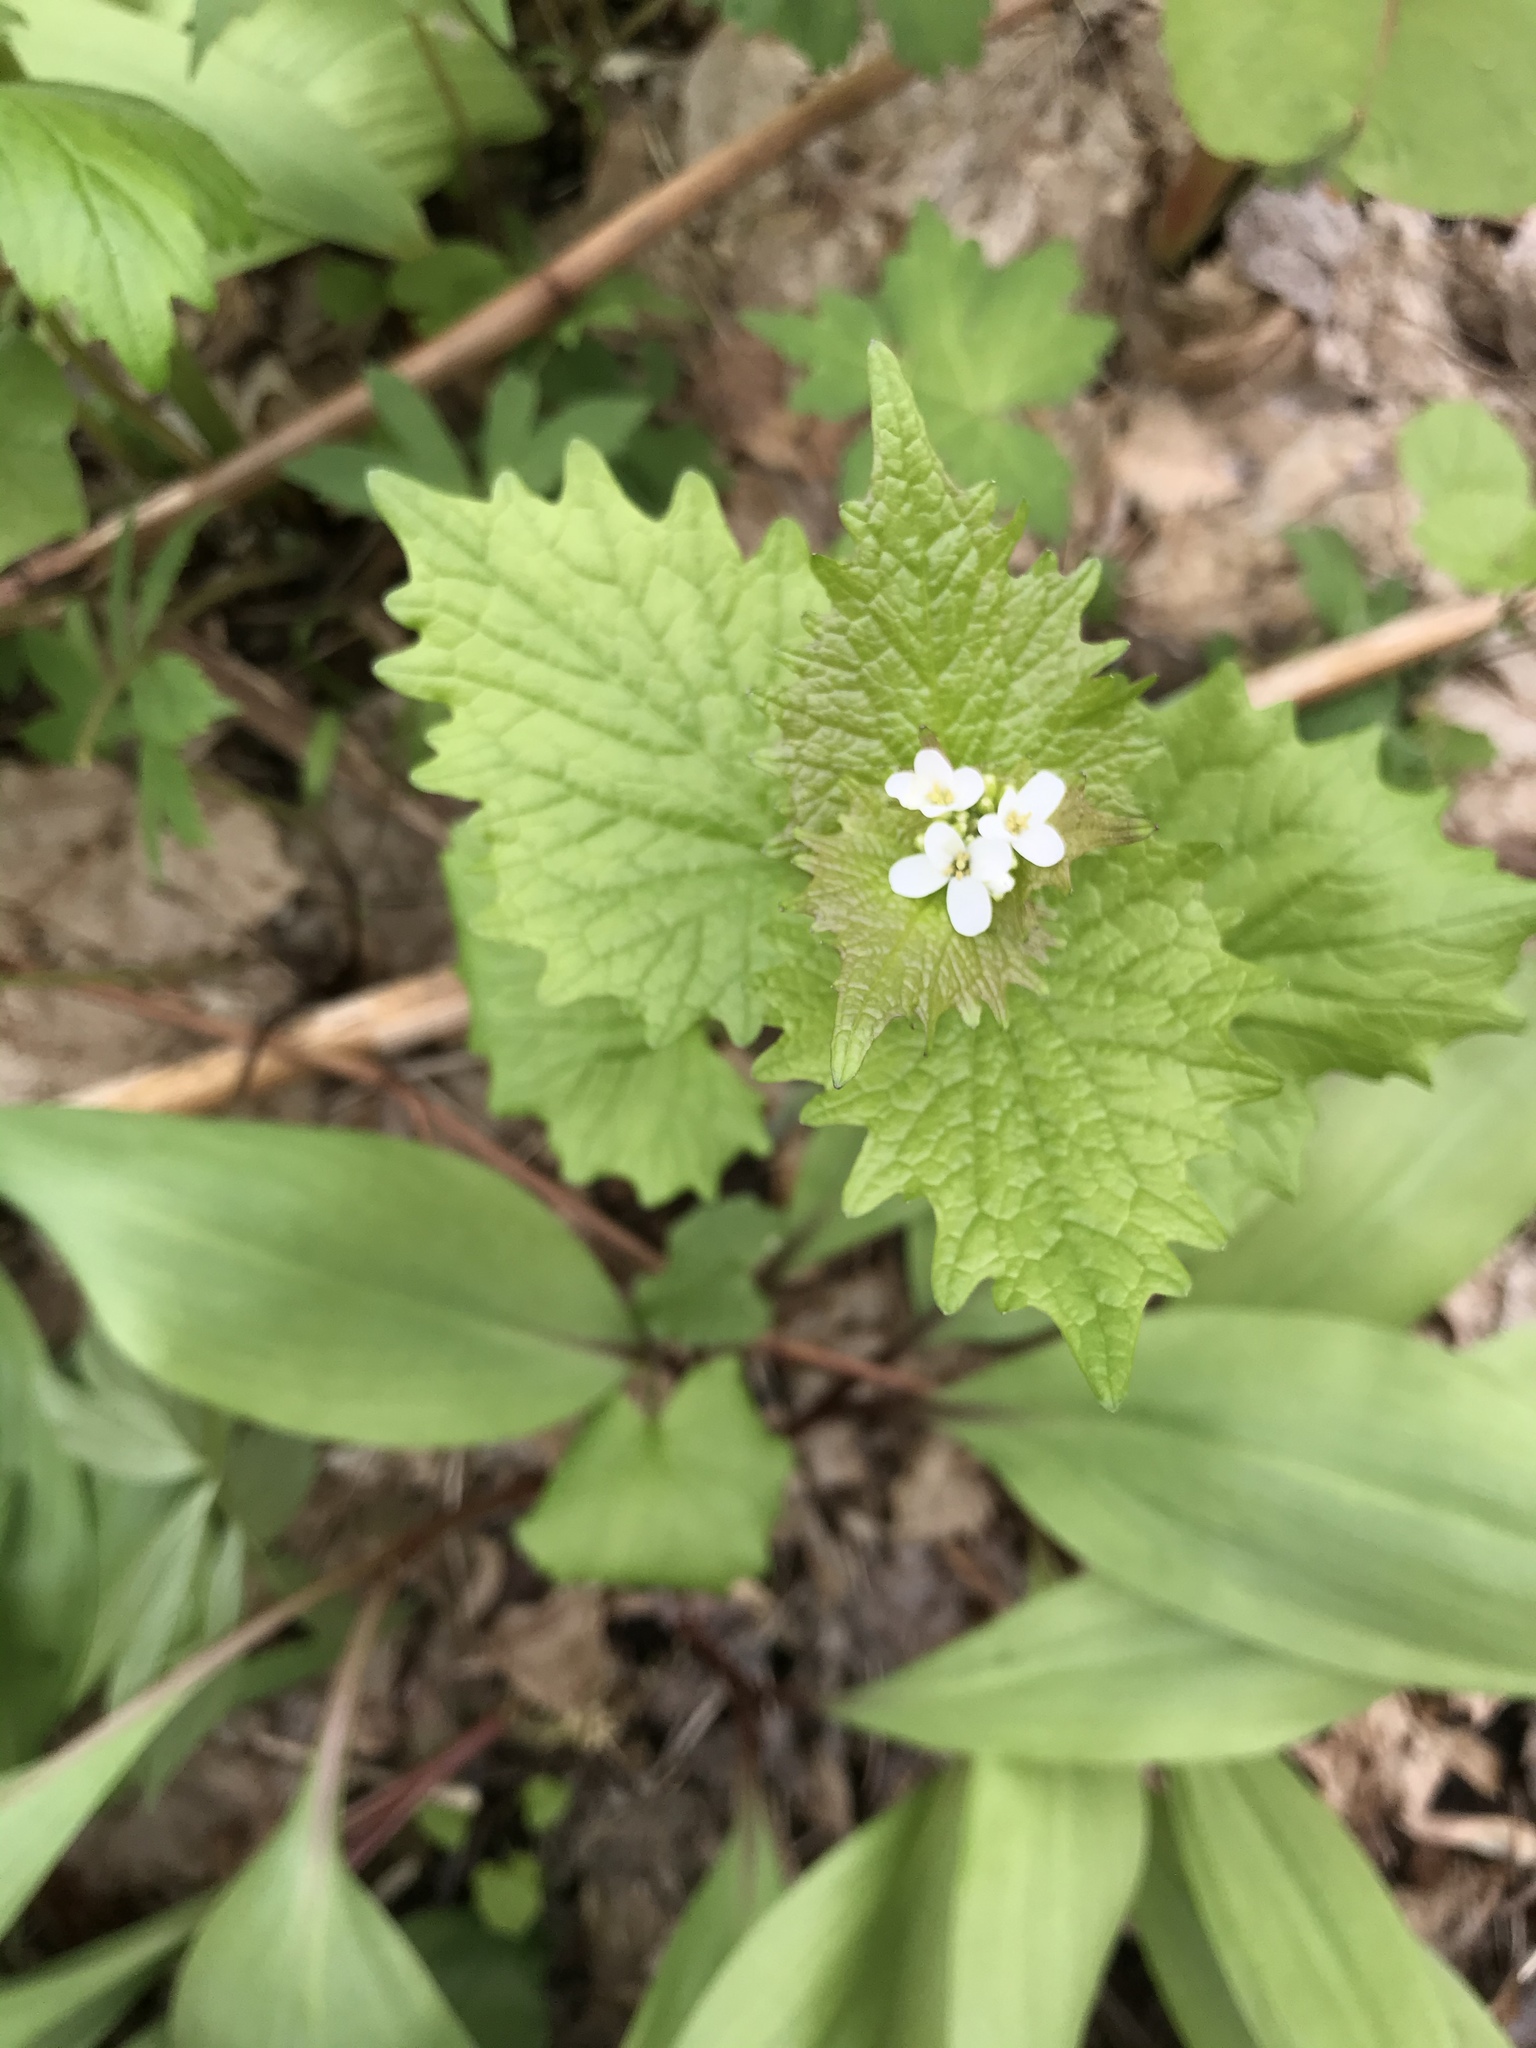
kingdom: Plantae
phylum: Tracheophyta
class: Magnoliopsida
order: Brassicales
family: Brassicaceae
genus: Alliaria
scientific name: Alliaria petiolata
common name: Garlic mustard
